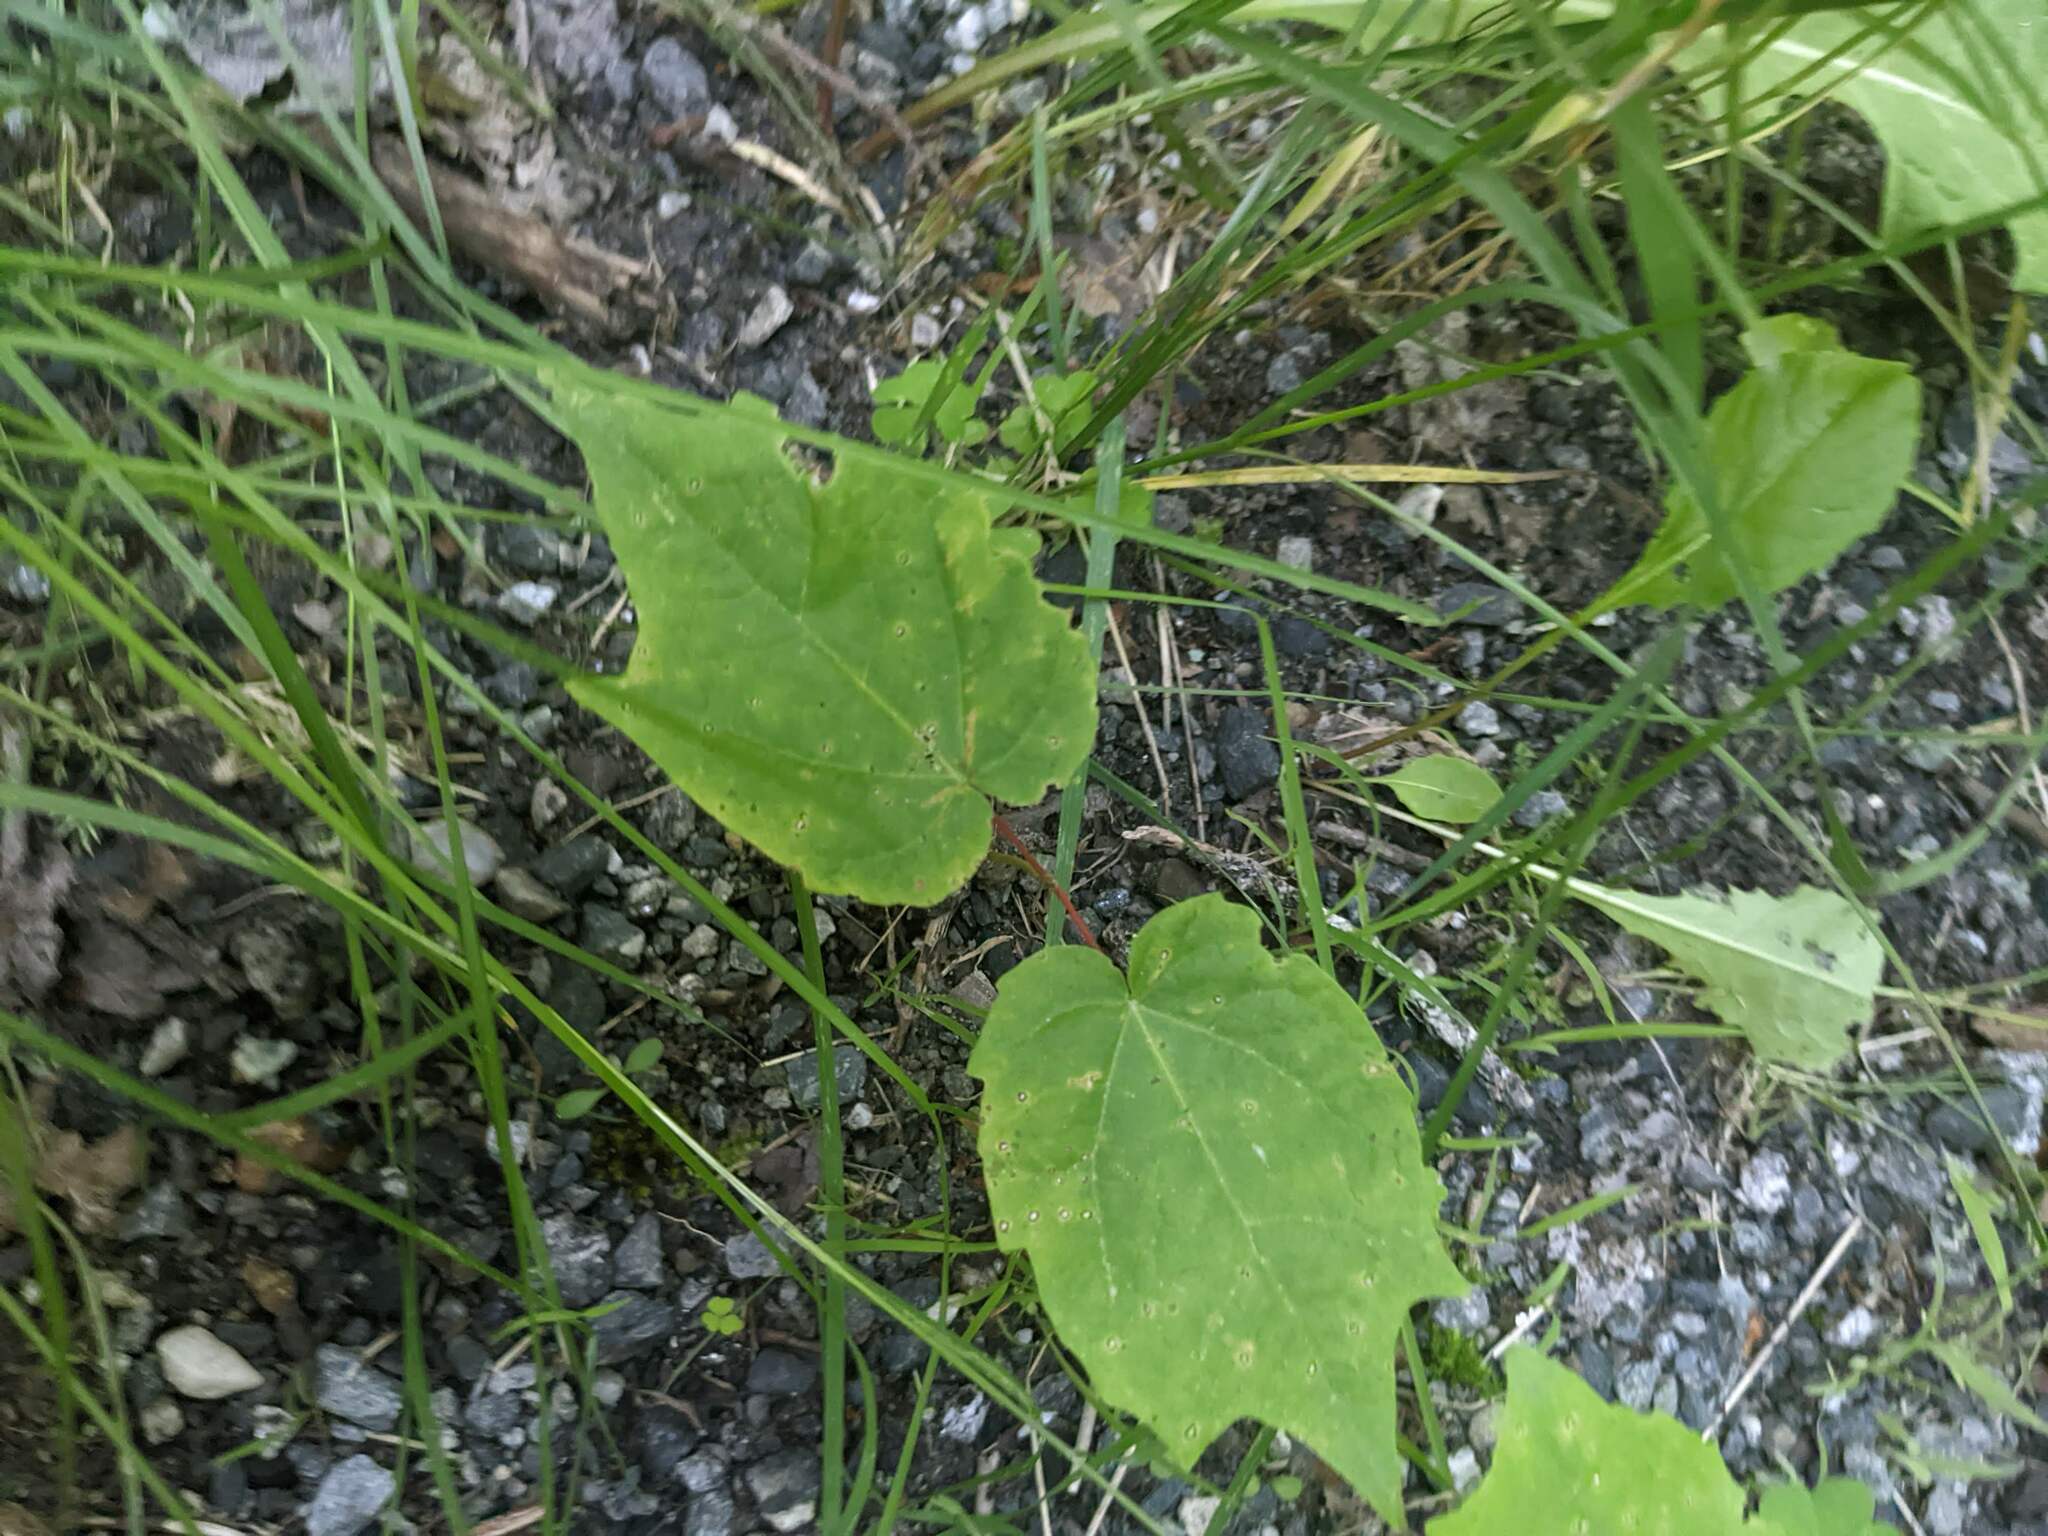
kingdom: Plantae
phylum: Tracheophyta
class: Magnoliopsida
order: Sapindales
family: Sapindaceae
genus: Acer
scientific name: Acer pensylvanicum
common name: Moosewood
